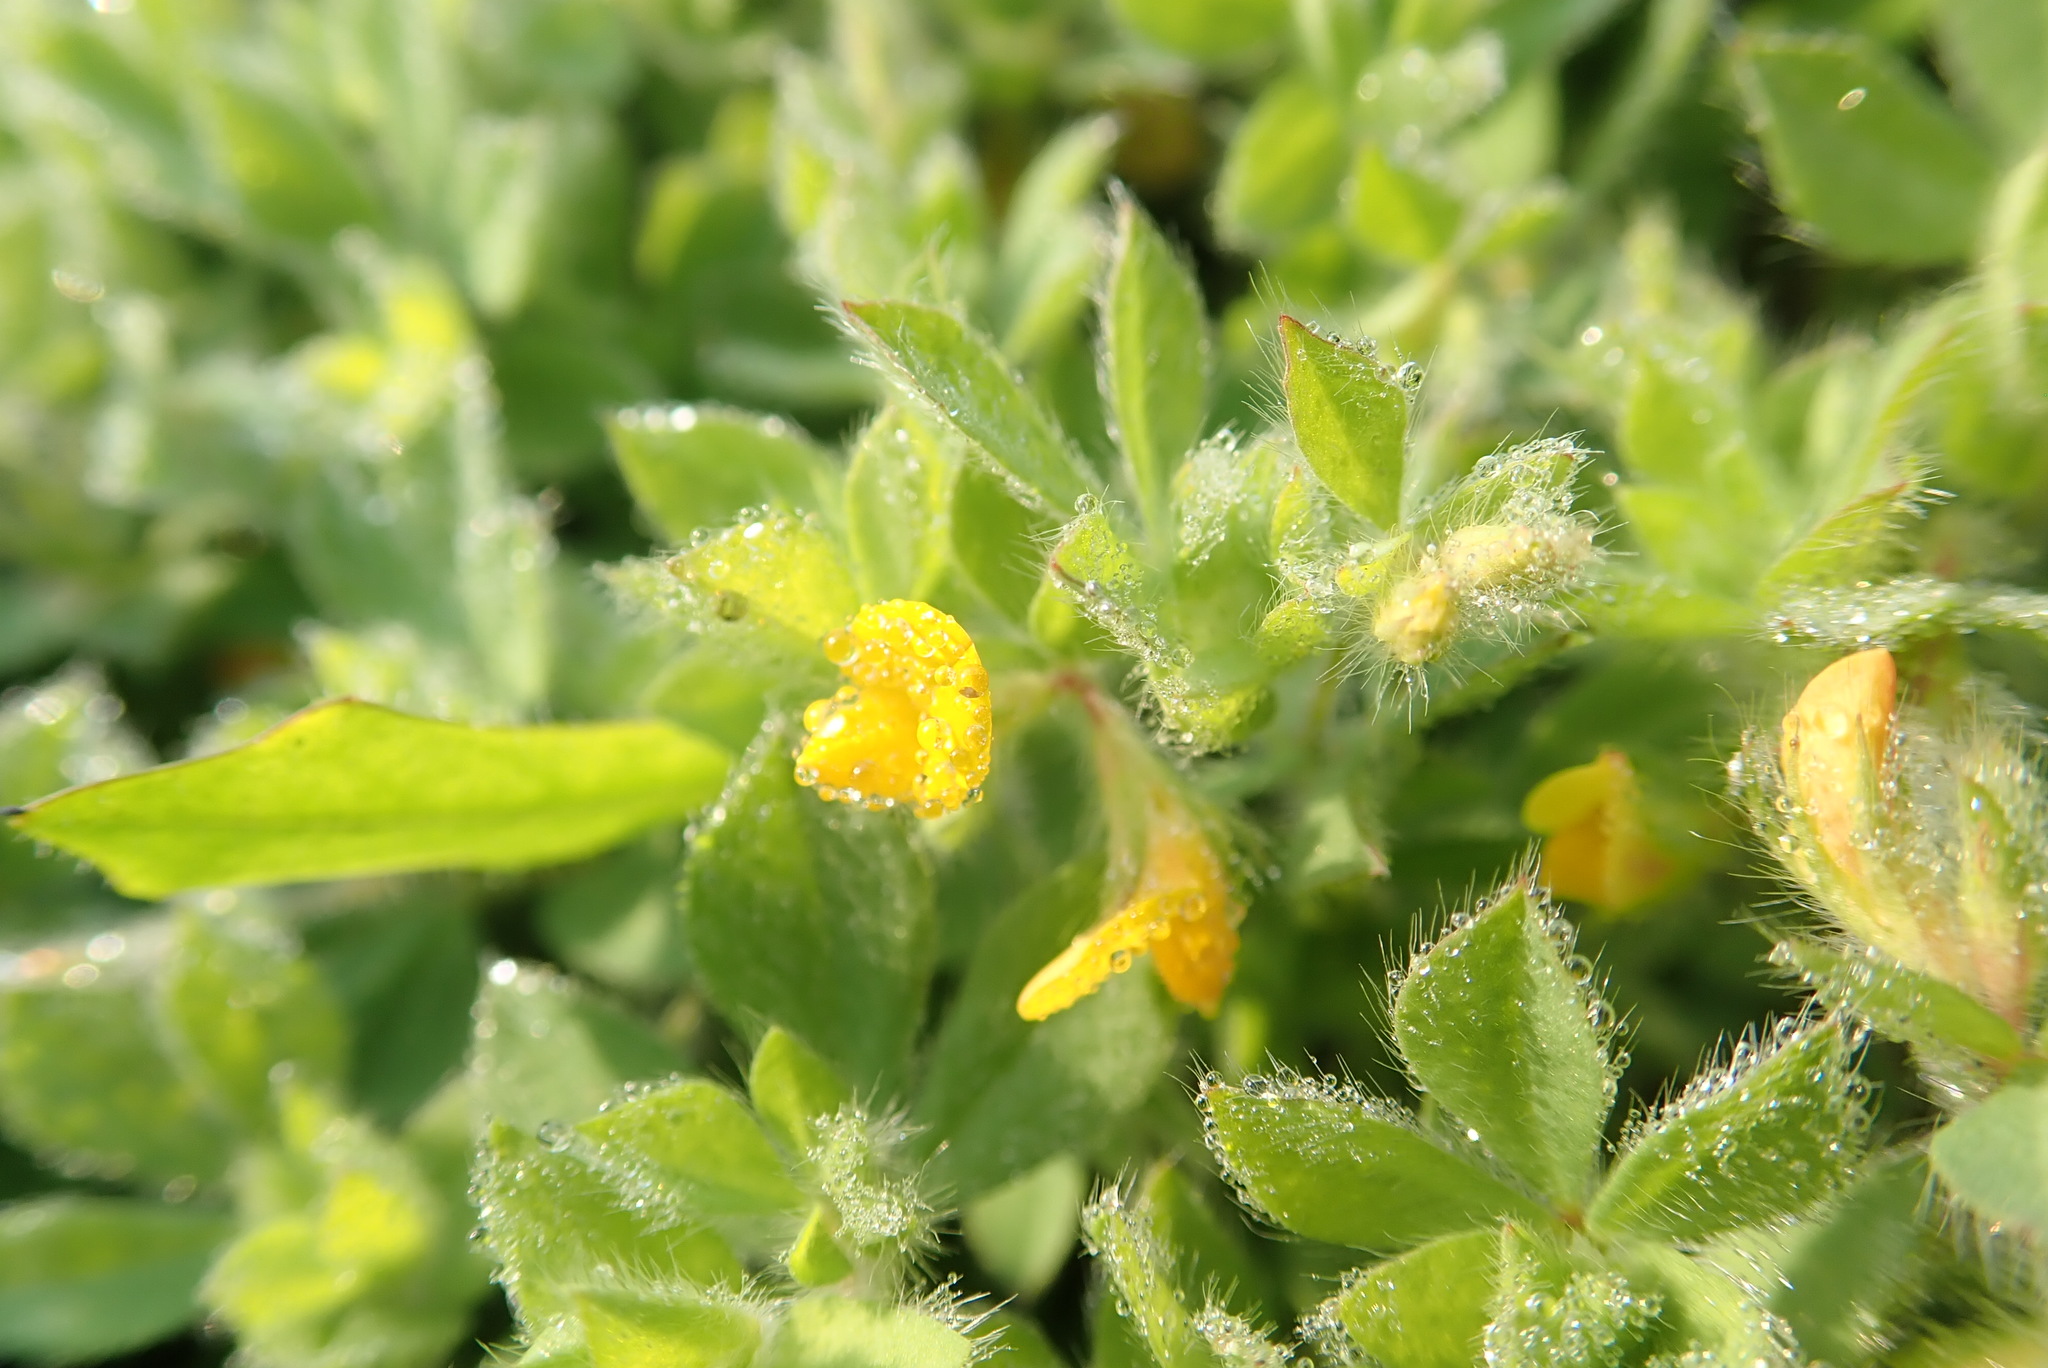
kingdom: Plantae
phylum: Tracheophyta
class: Magnoliopsida
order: Fabales
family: Fabaceae
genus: Lotus
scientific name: Lotus subbiflorus
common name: Hairy bird's-foot trefoil
